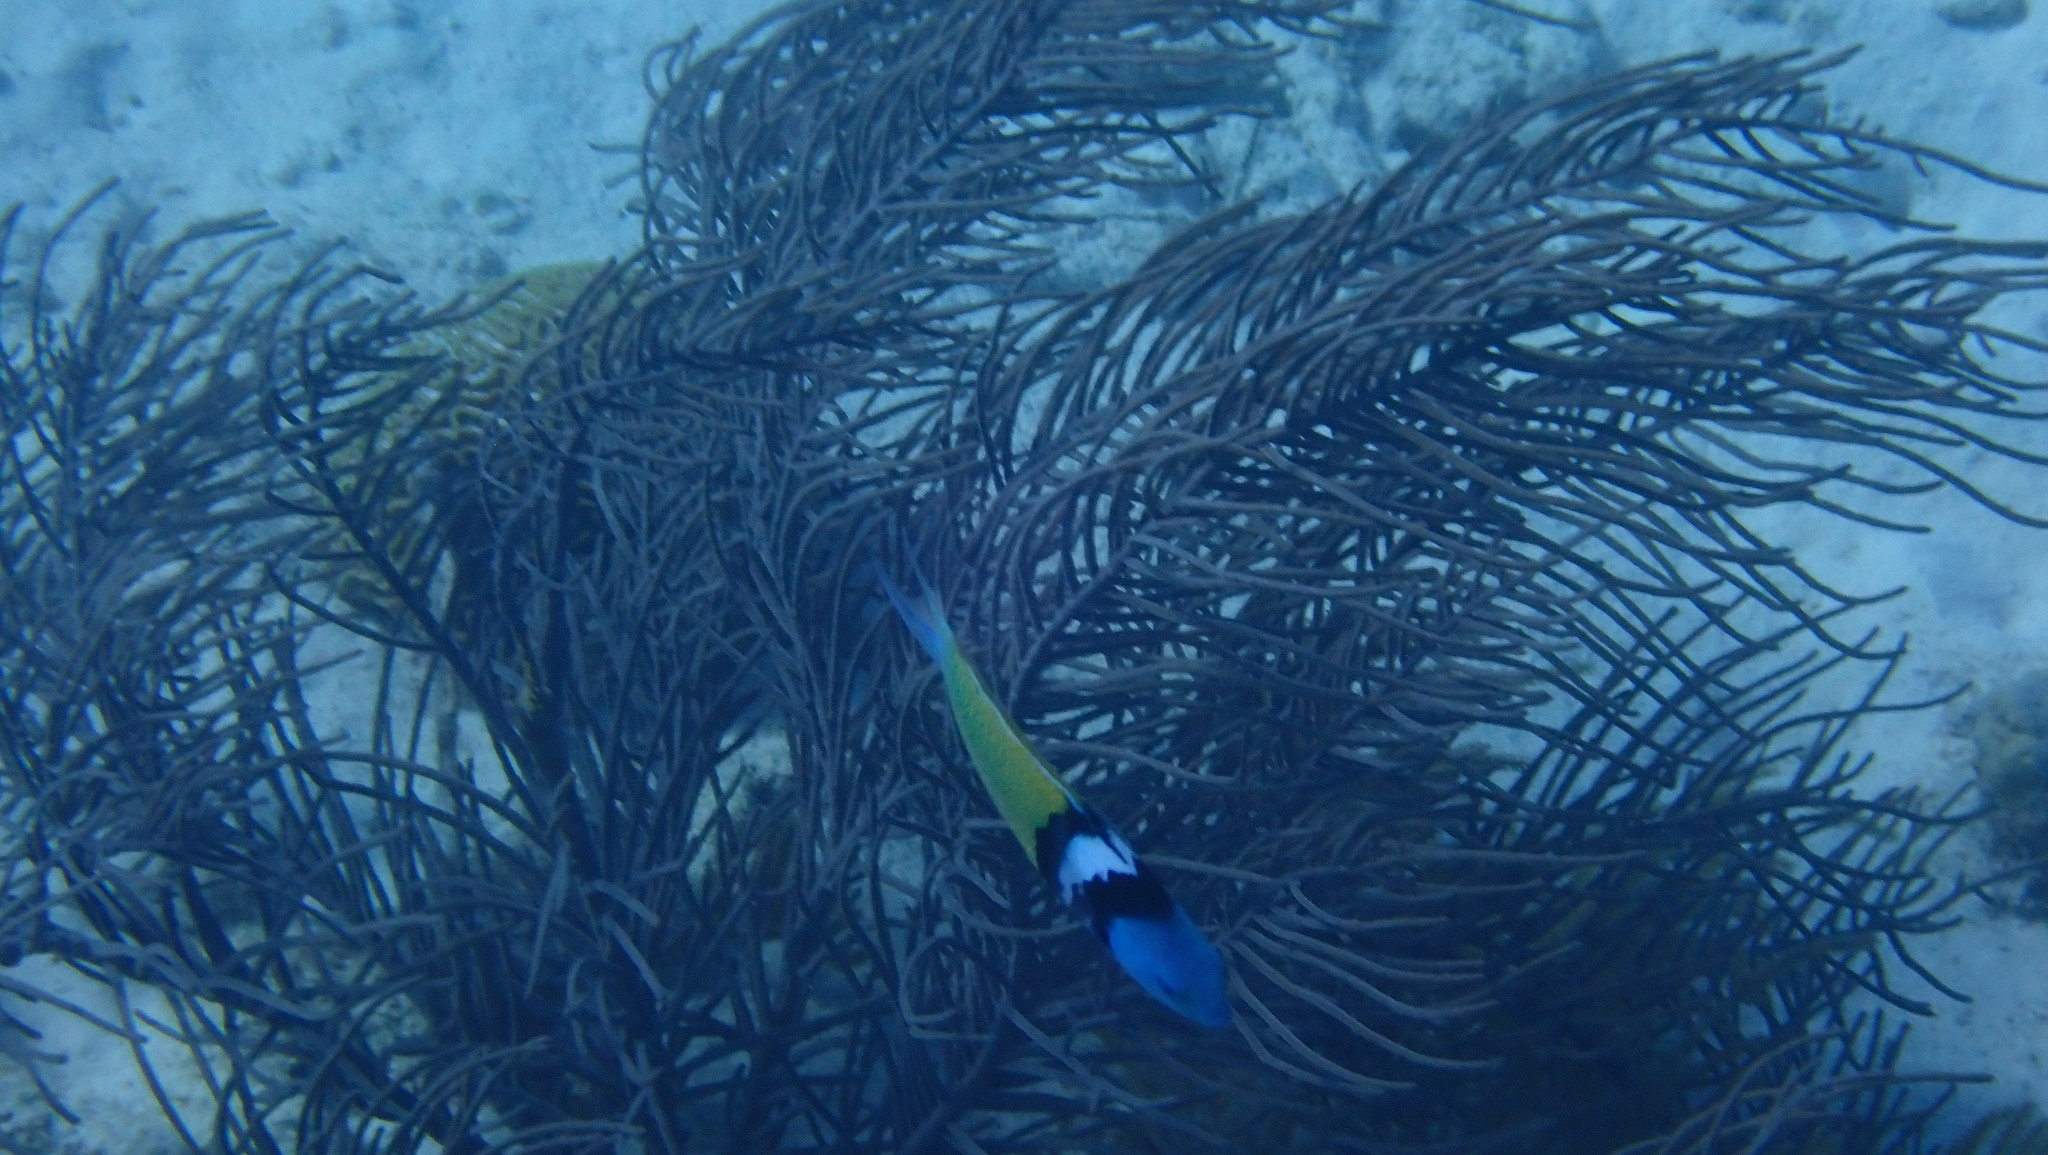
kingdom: Animalia
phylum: Chordata
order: Perciformes
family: Labridae
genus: Thalassoma
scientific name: Thalassoma bifasciatum
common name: Bluehead wrasse
